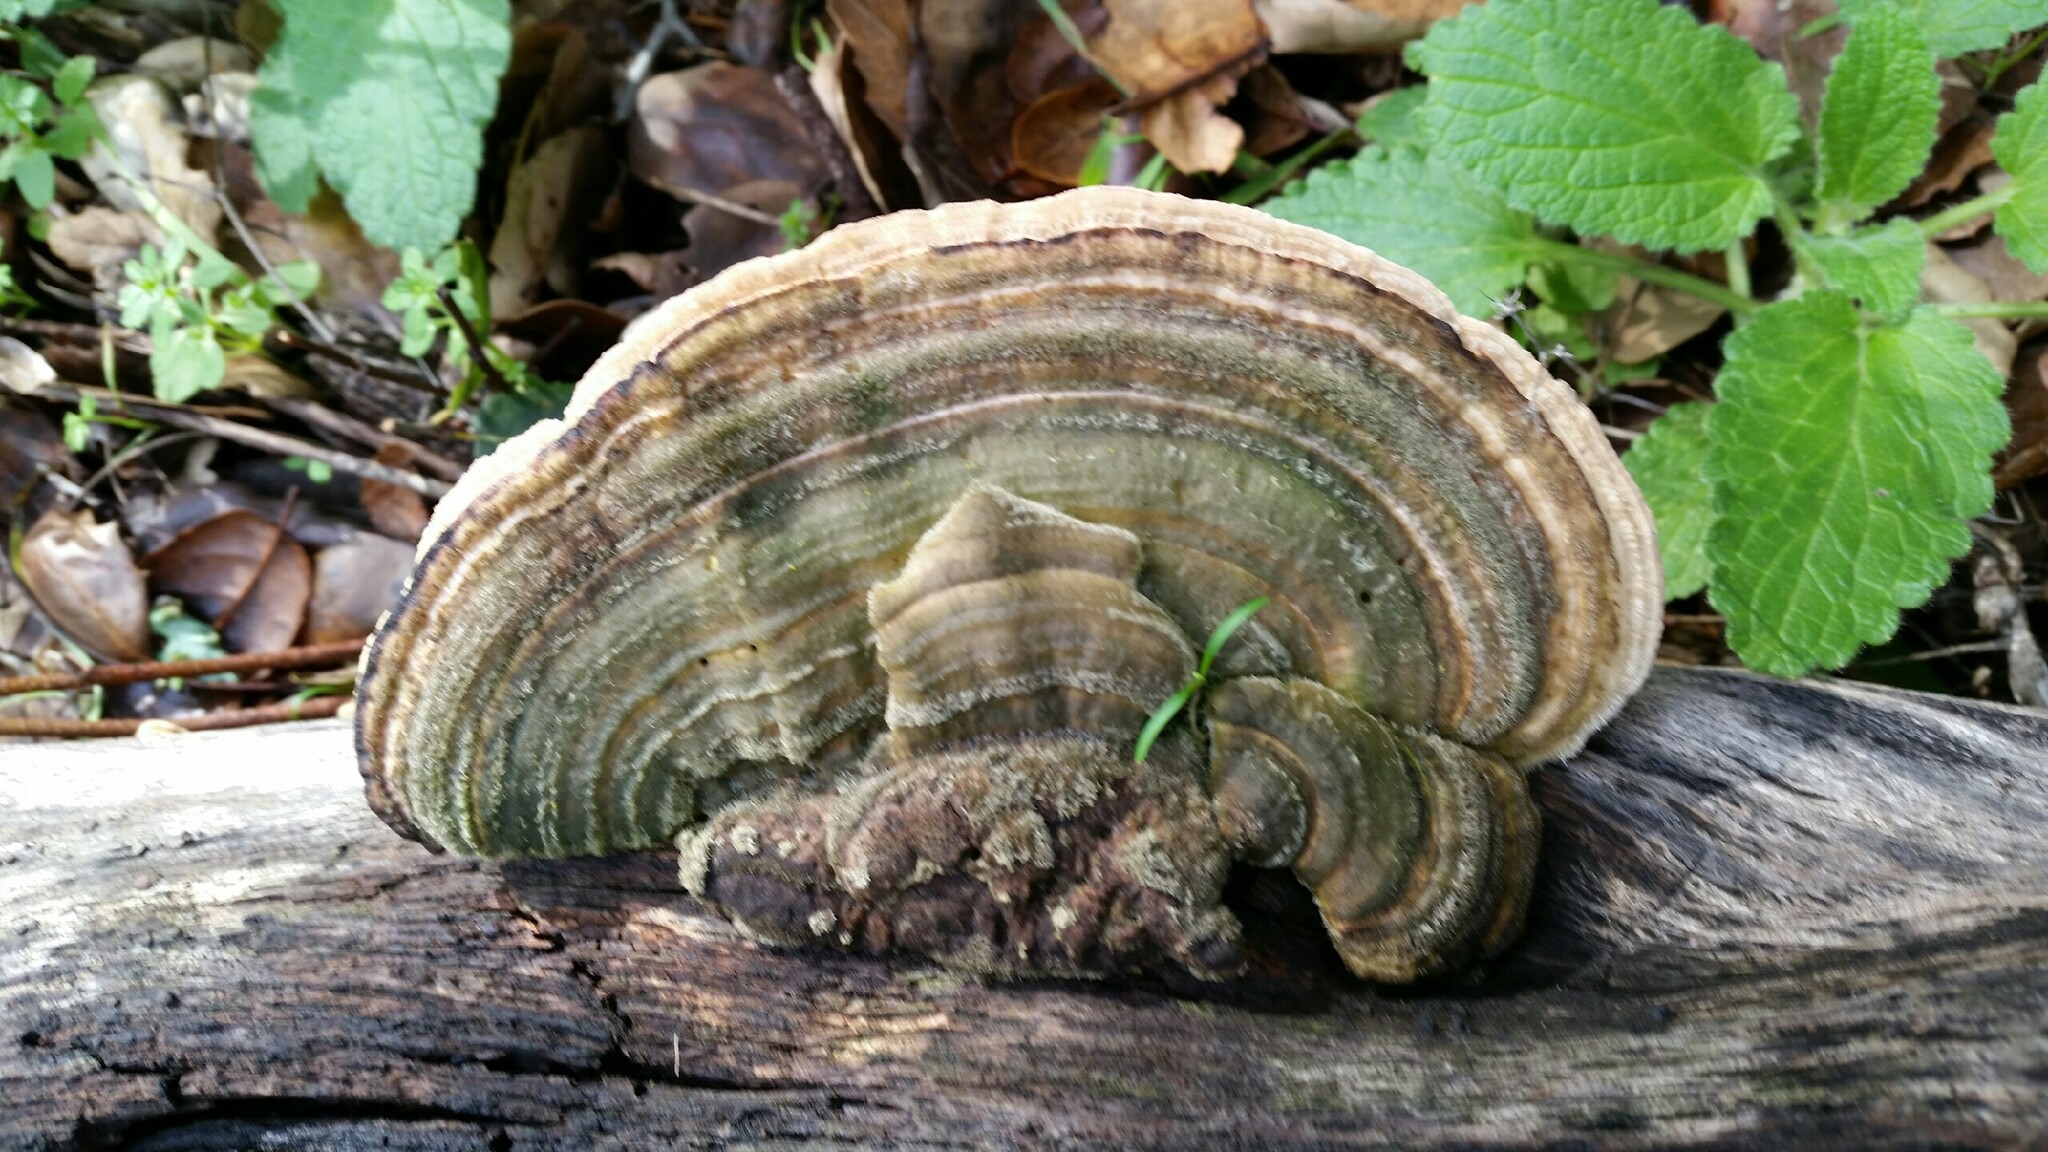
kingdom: Fungi
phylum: Basidiomycota
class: Agaricomycetes
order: Polyporales
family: Polyporaceae
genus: Lenzites
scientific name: Lenzites betulinus
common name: Birch mazegill
